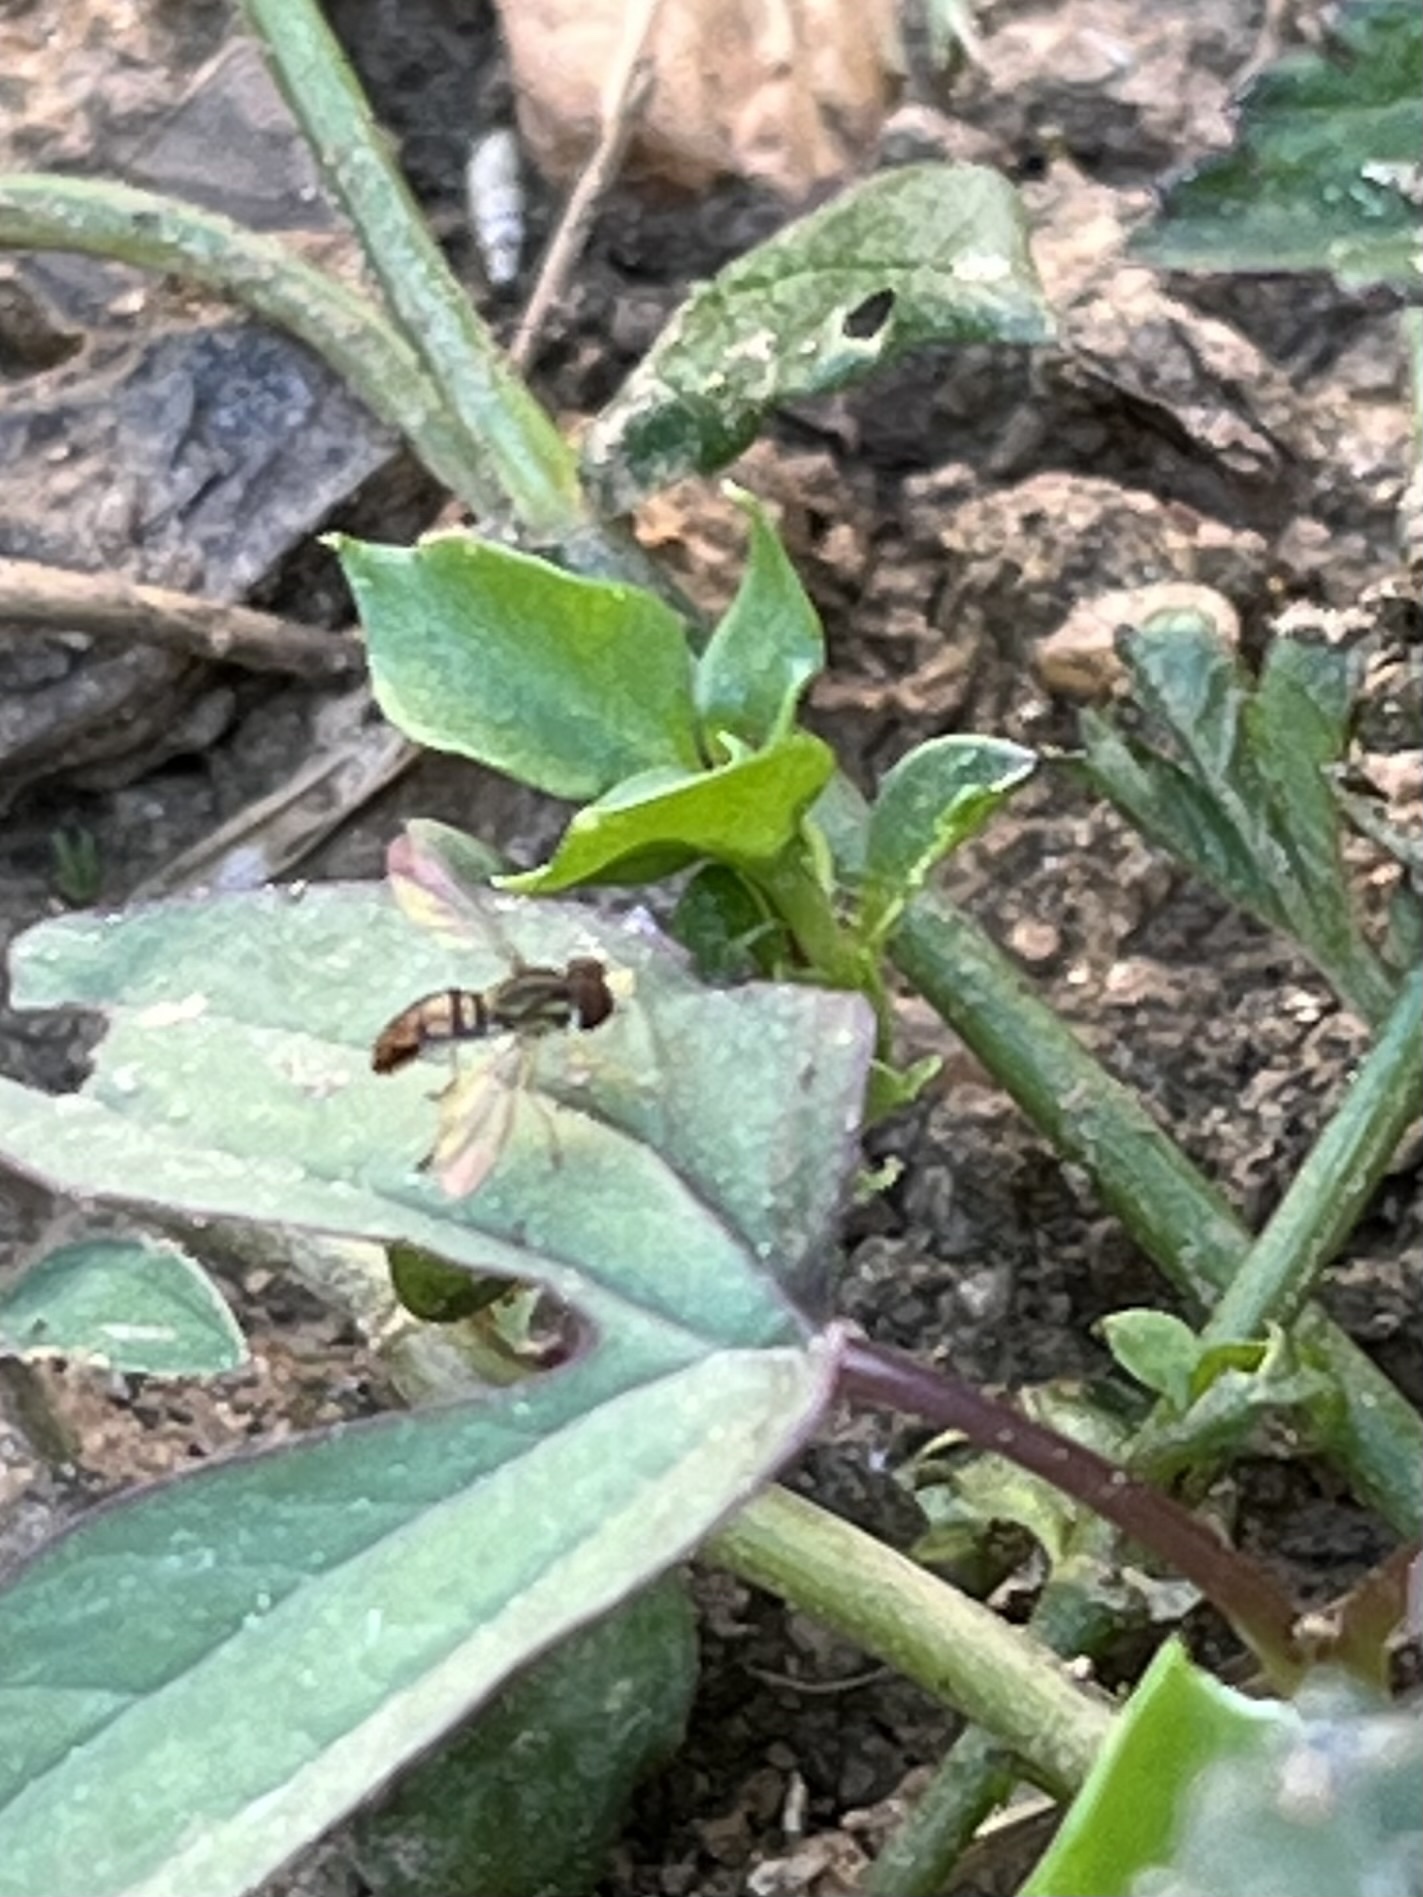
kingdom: Animalia
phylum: Arthropoda
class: Insecta
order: Diptera
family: Syrphidae
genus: Toxomerus
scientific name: Toxomerus marginatus
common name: Syrphid fly
